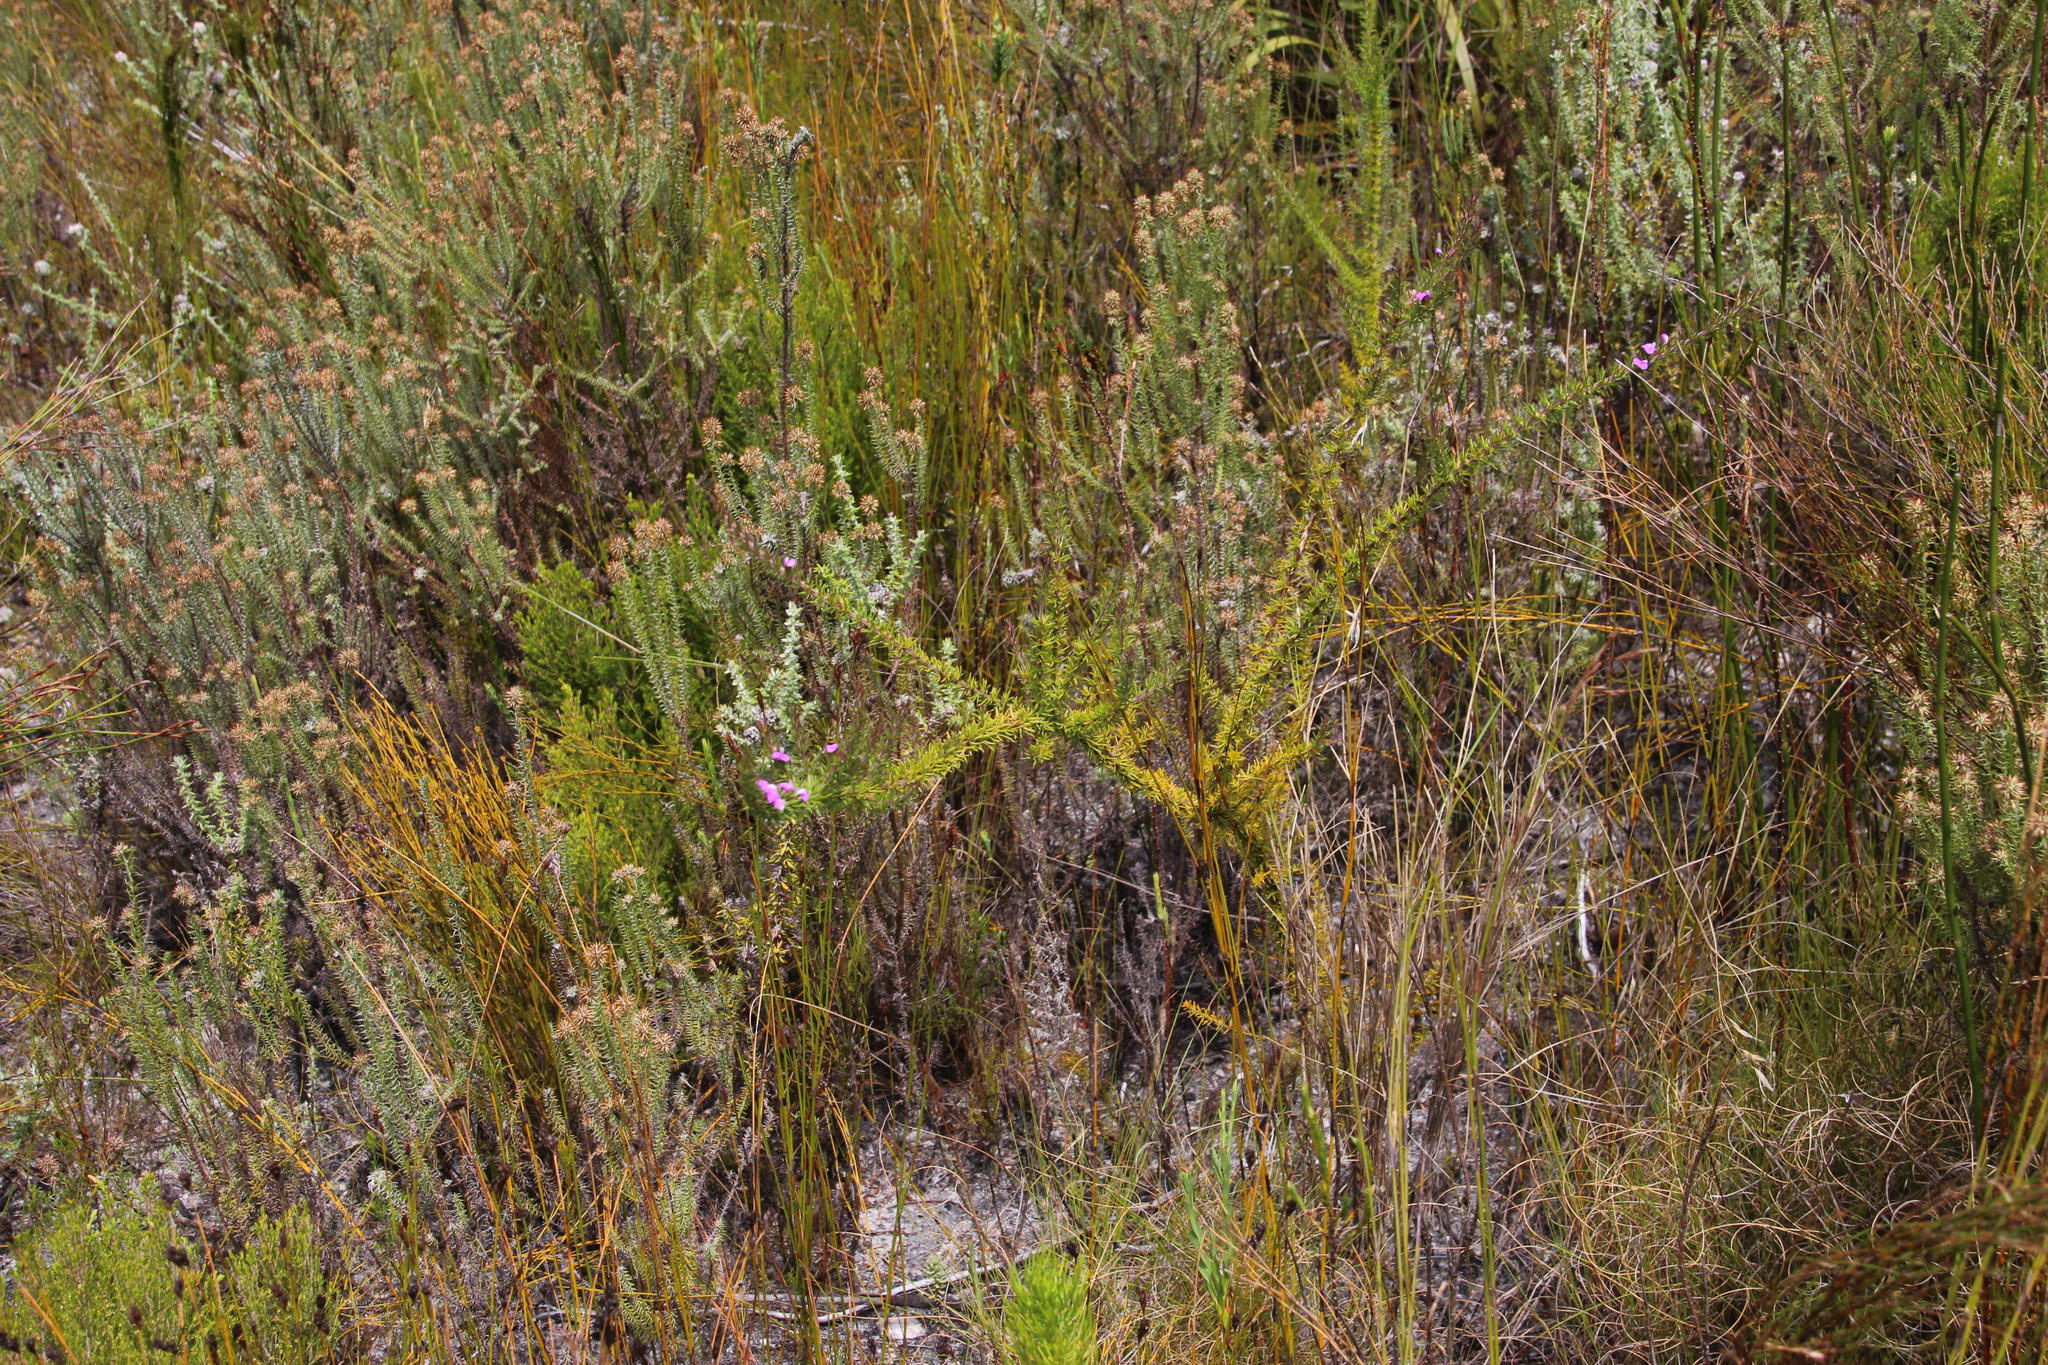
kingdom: Plantae
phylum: Tracheophyta
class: Magnoliopsida
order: Fabales
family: Polygalaceae
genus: Muraltia
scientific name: Muraltia heisteria
